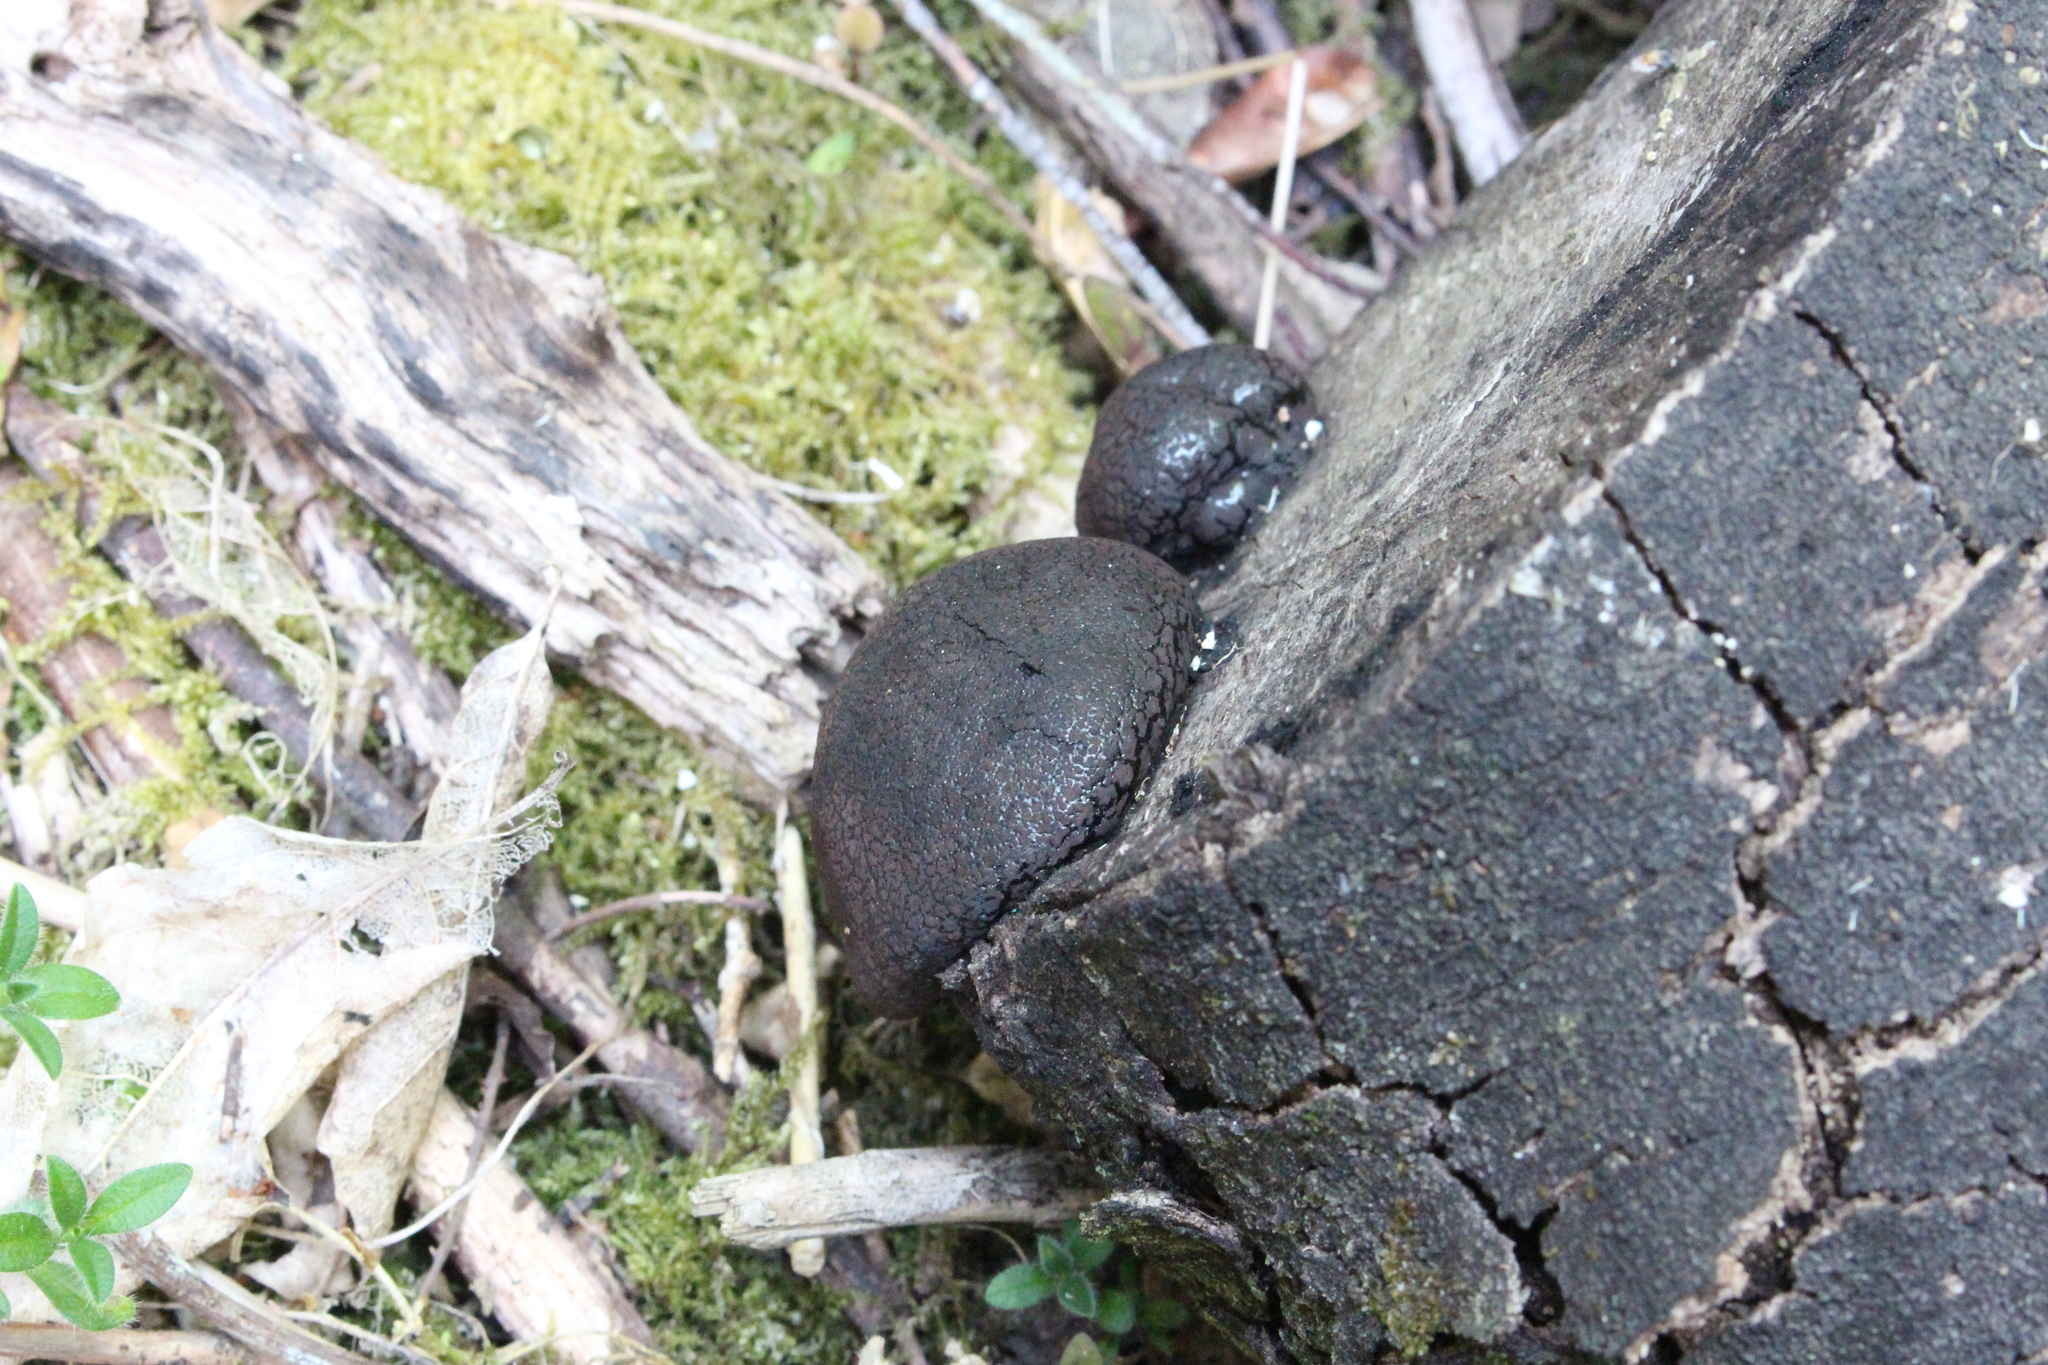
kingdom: Fungi
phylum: Ascomycota
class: Sordariomycetes
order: Xylariales
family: Hypoxylaceae
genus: Daldinia
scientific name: Daldinia
